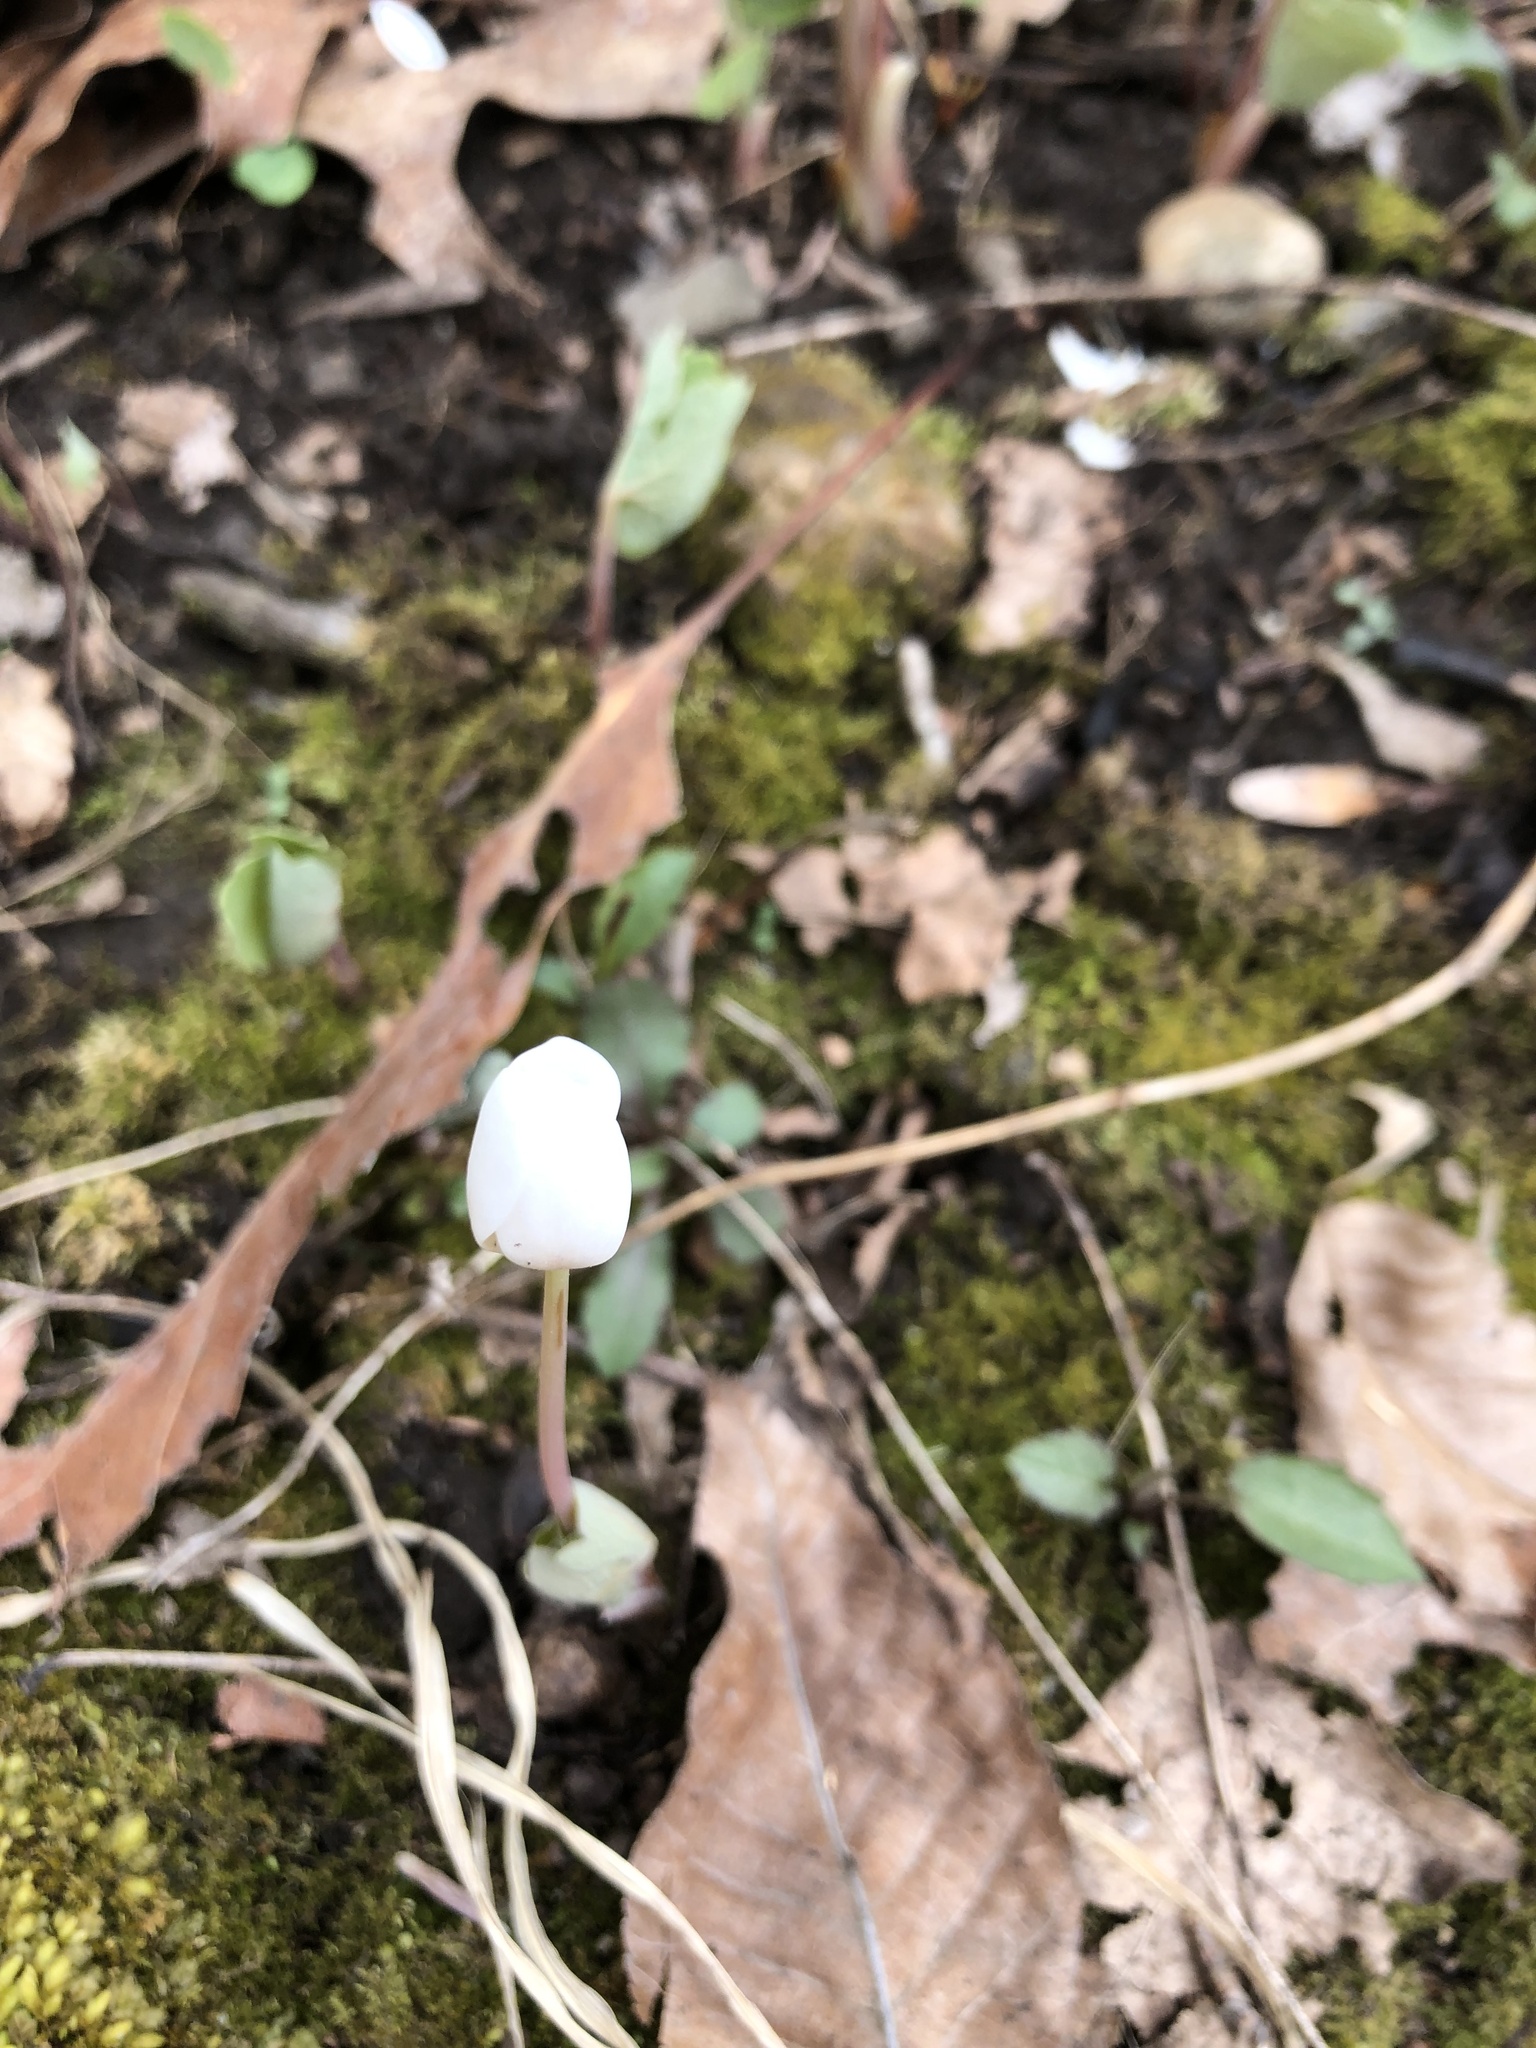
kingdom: Plantae
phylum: Tracheophyta
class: Magnoliopsida
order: Ranunculales
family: Papaveraceae
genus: Sanguinaria
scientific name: Sanguinaria canadensis
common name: Bloodroot
